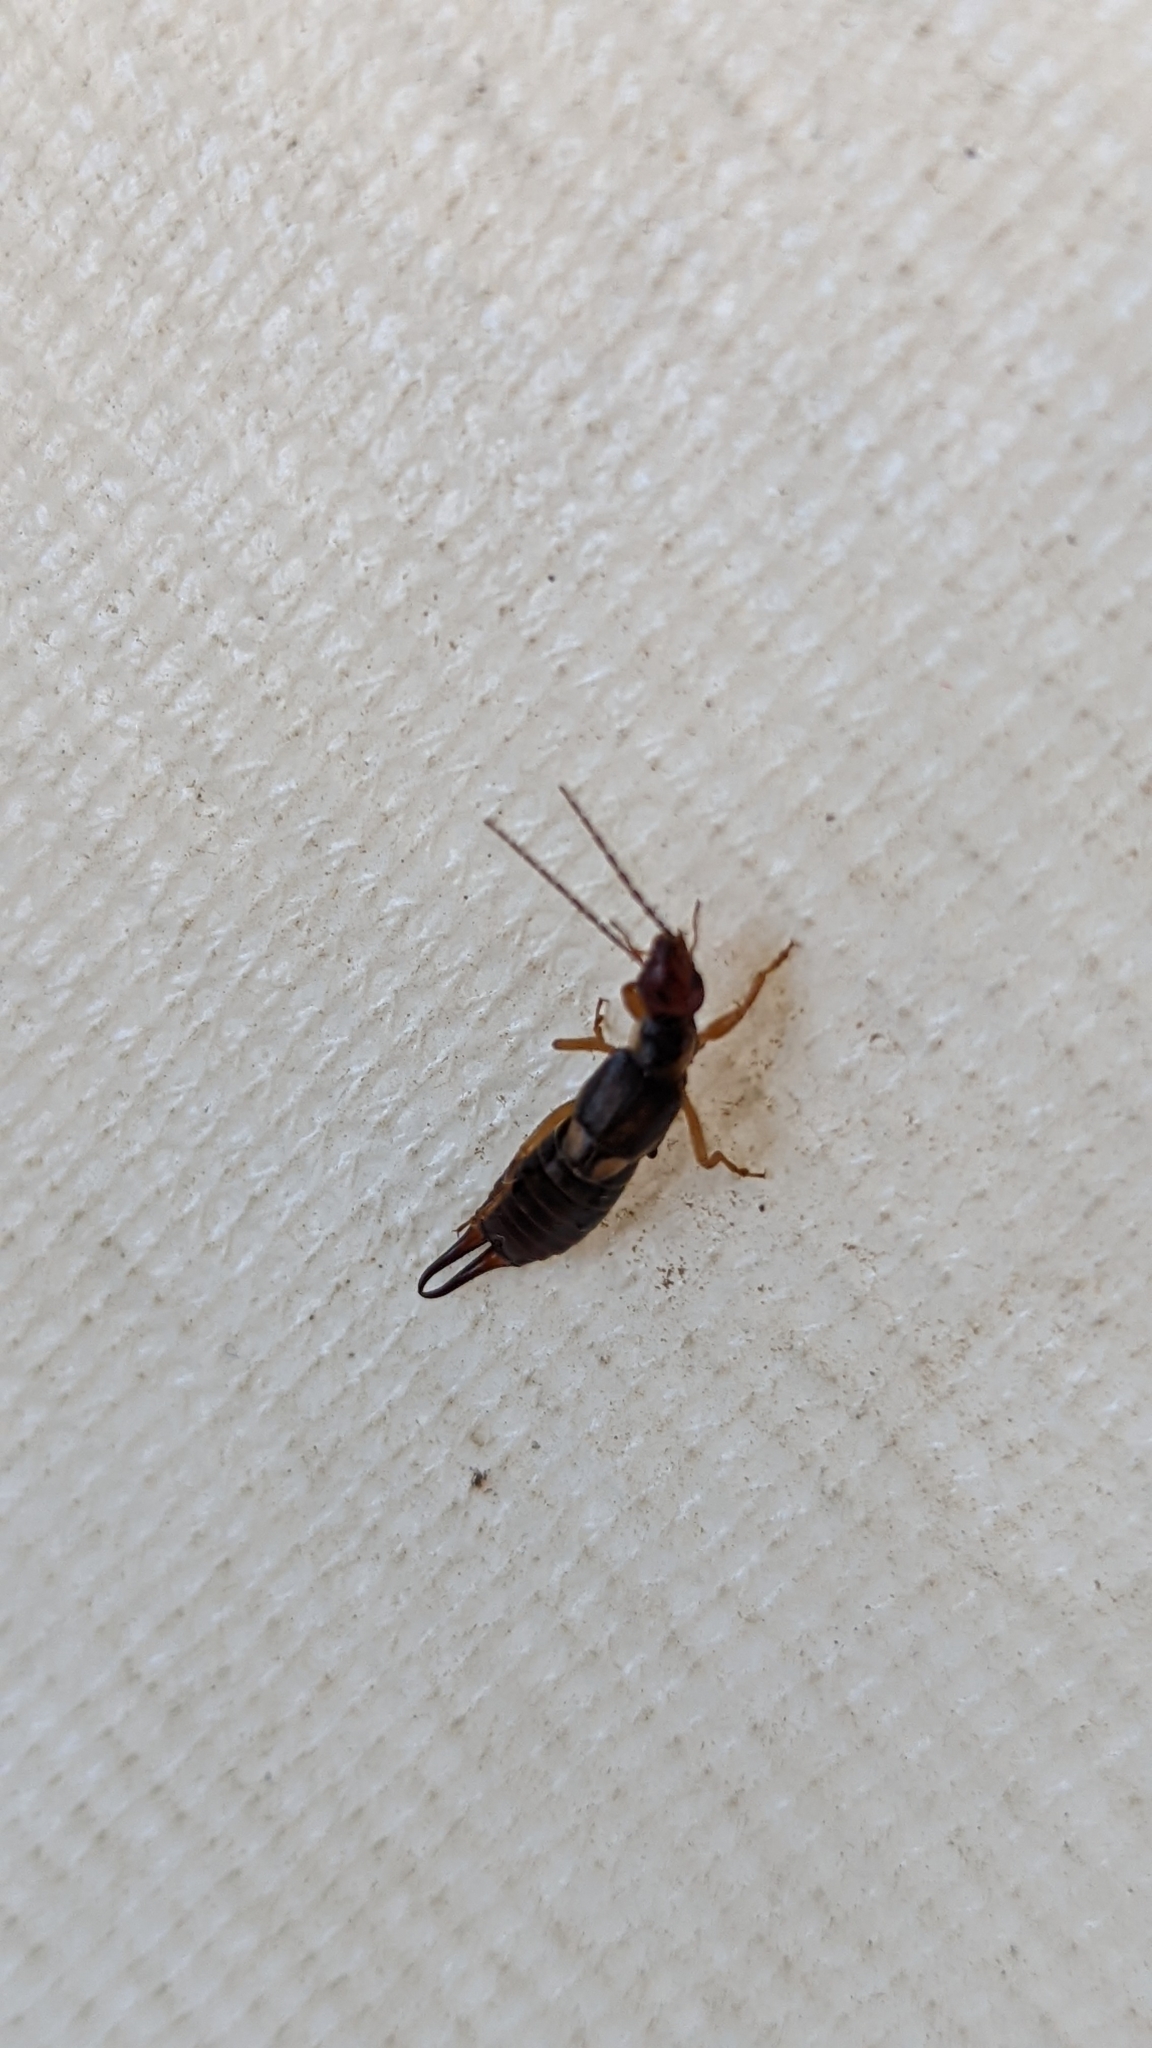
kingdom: Animalia
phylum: Arthropoda
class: Insecta
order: Dermaptera
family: Forficulidae
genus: Forficula
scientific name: Forficula
